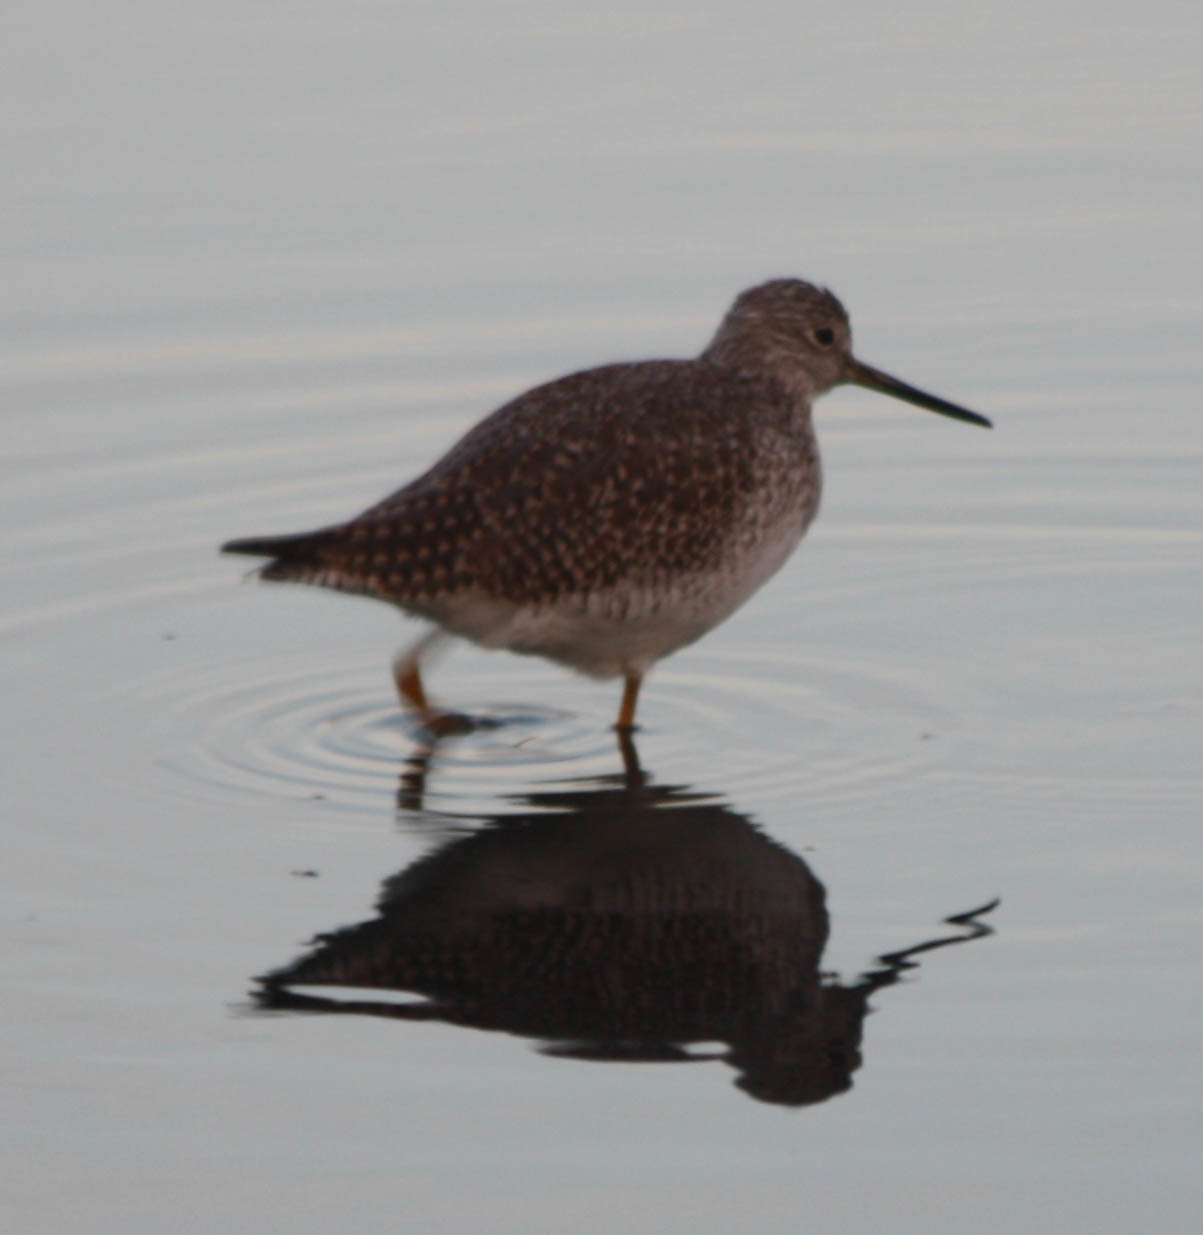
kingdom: Animalia
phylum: Chordata
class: Aves
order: Charadriiformes
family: Scolopacidae
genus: Tringa
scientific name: Tringa melanoleuca
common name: Greater yellowlegs
